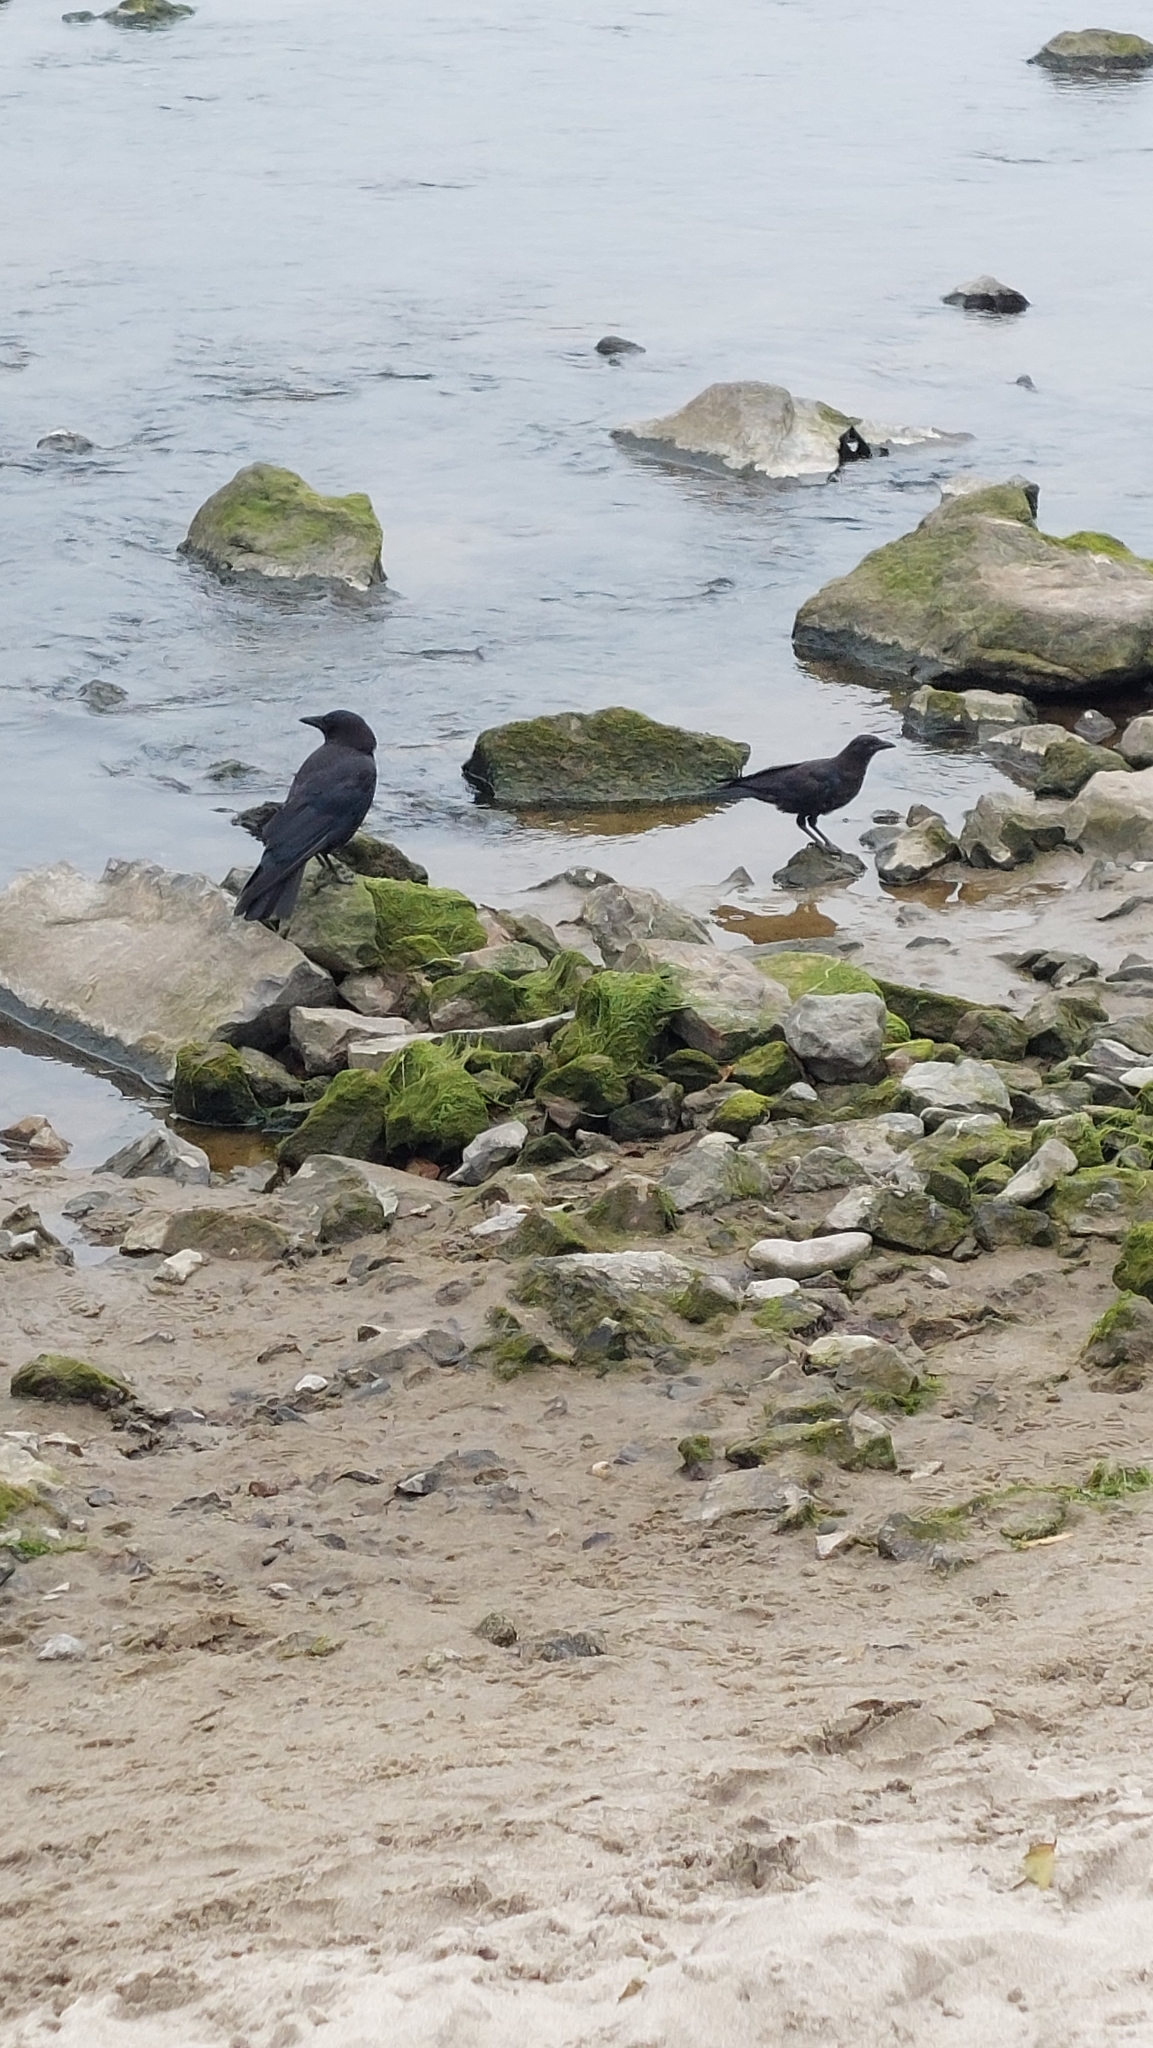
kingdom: Animalia
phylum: Chordata
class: Aves
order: Passeriformes
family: Corvidae
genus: Corvus
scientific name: Corvus brachyrhynchos
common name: American crow
